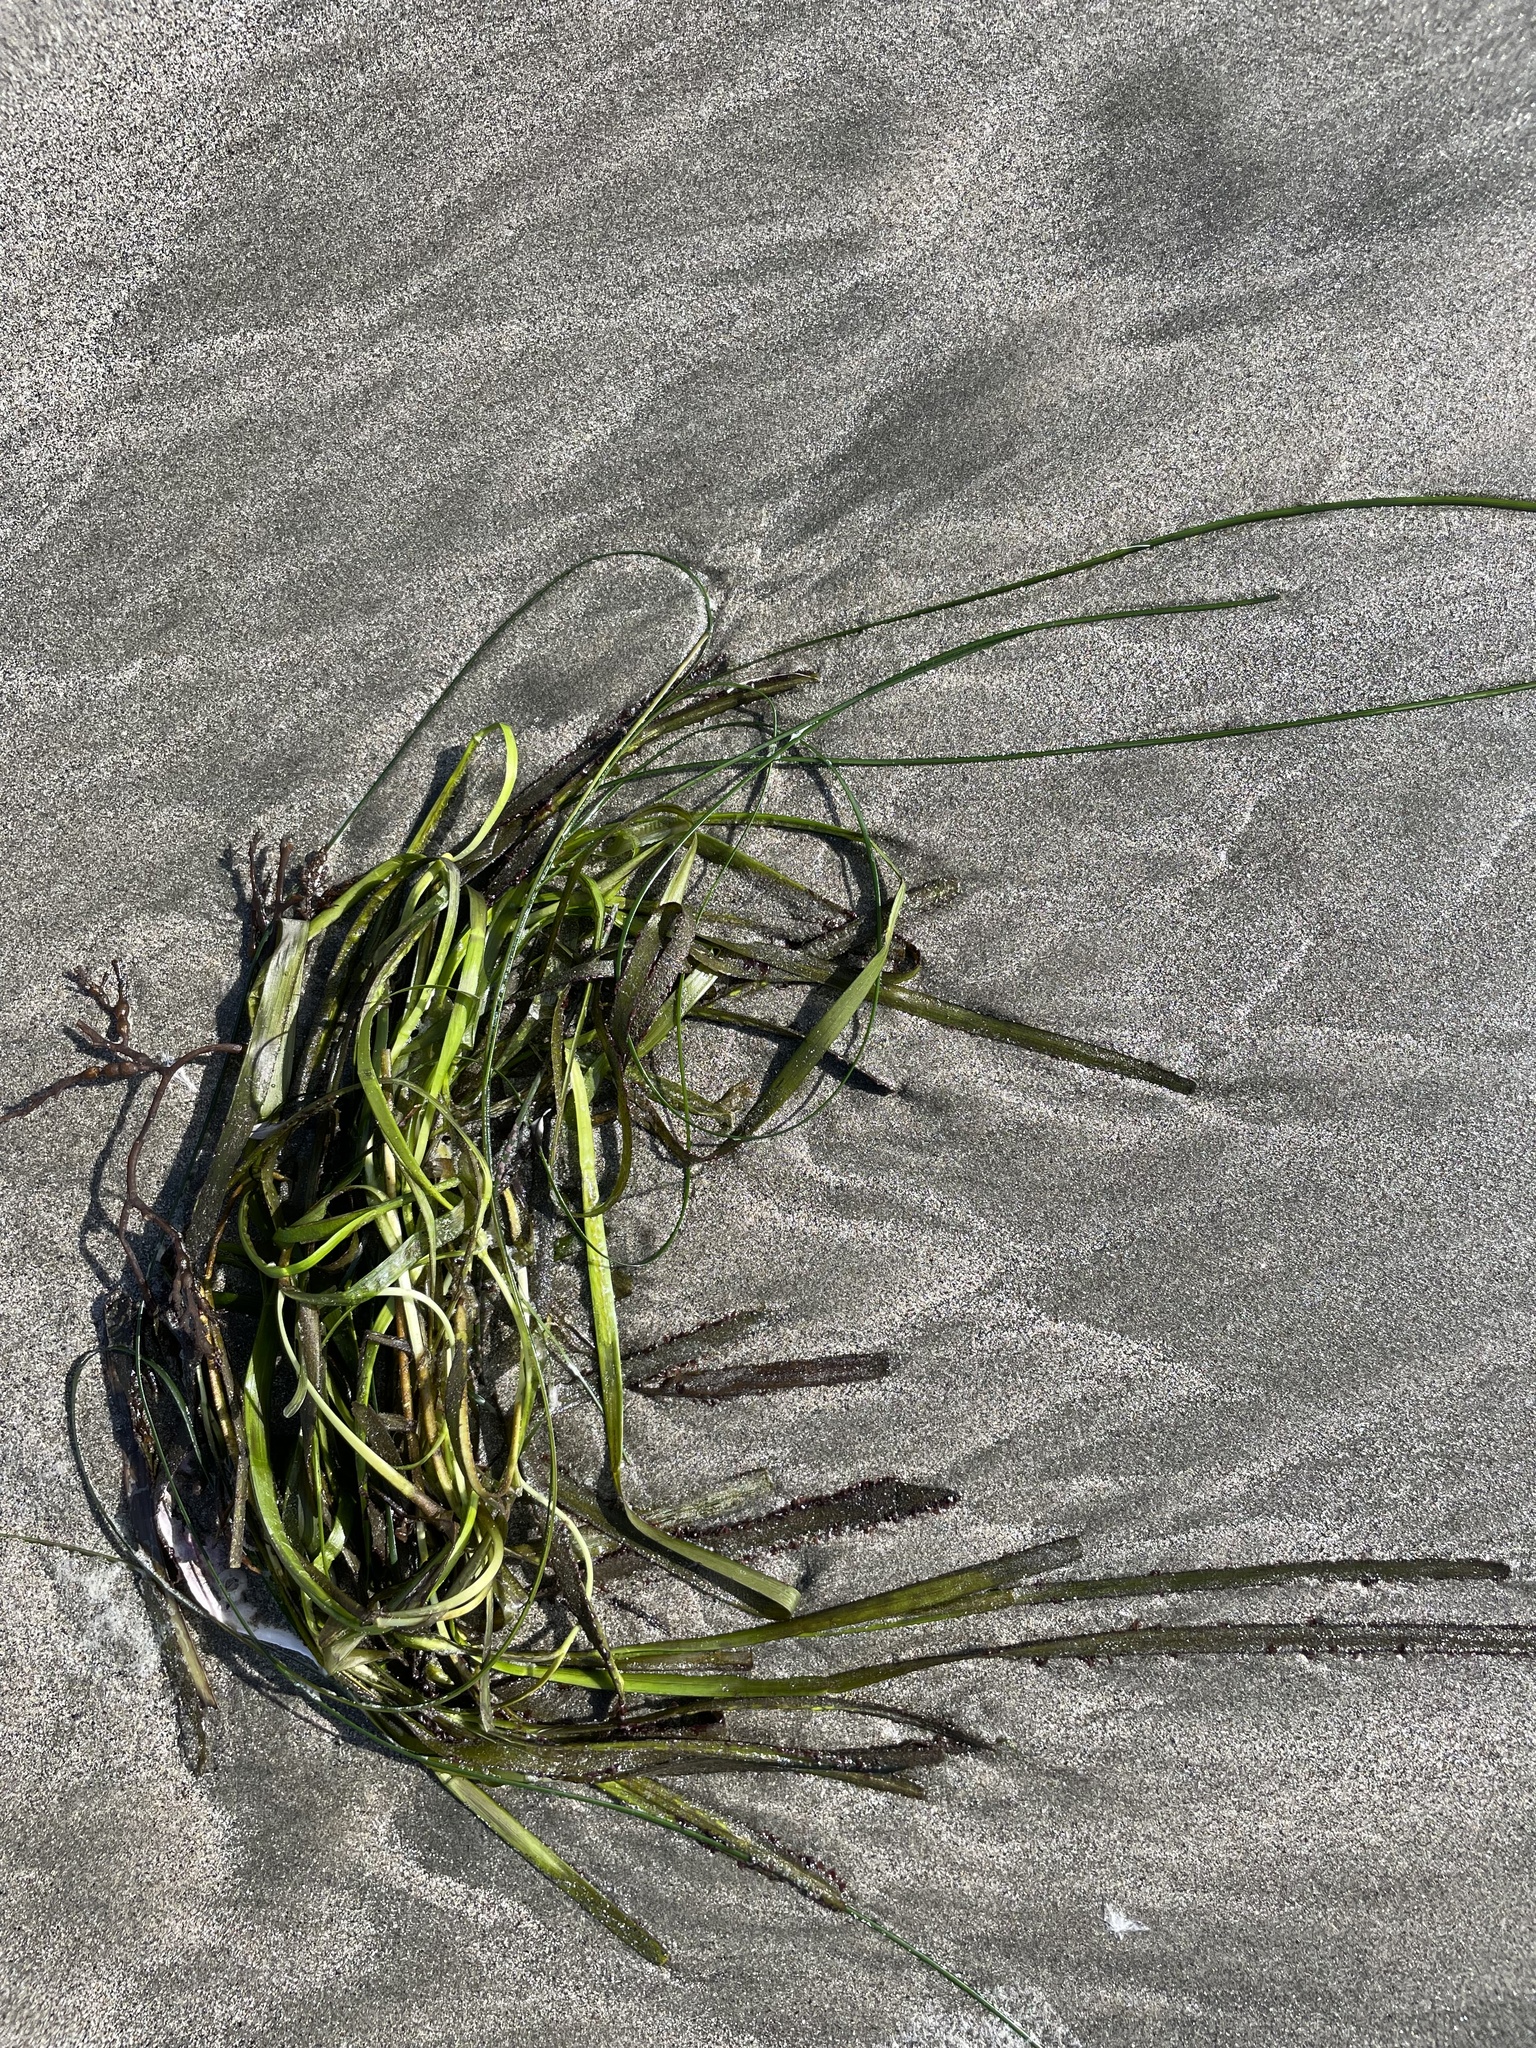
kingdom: Plantae
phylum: Tracheophyta
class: Liliopsida
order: Alismatales
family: Zosteraceae
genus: Zostera
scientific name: Zostera marina
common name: Eelgrass
